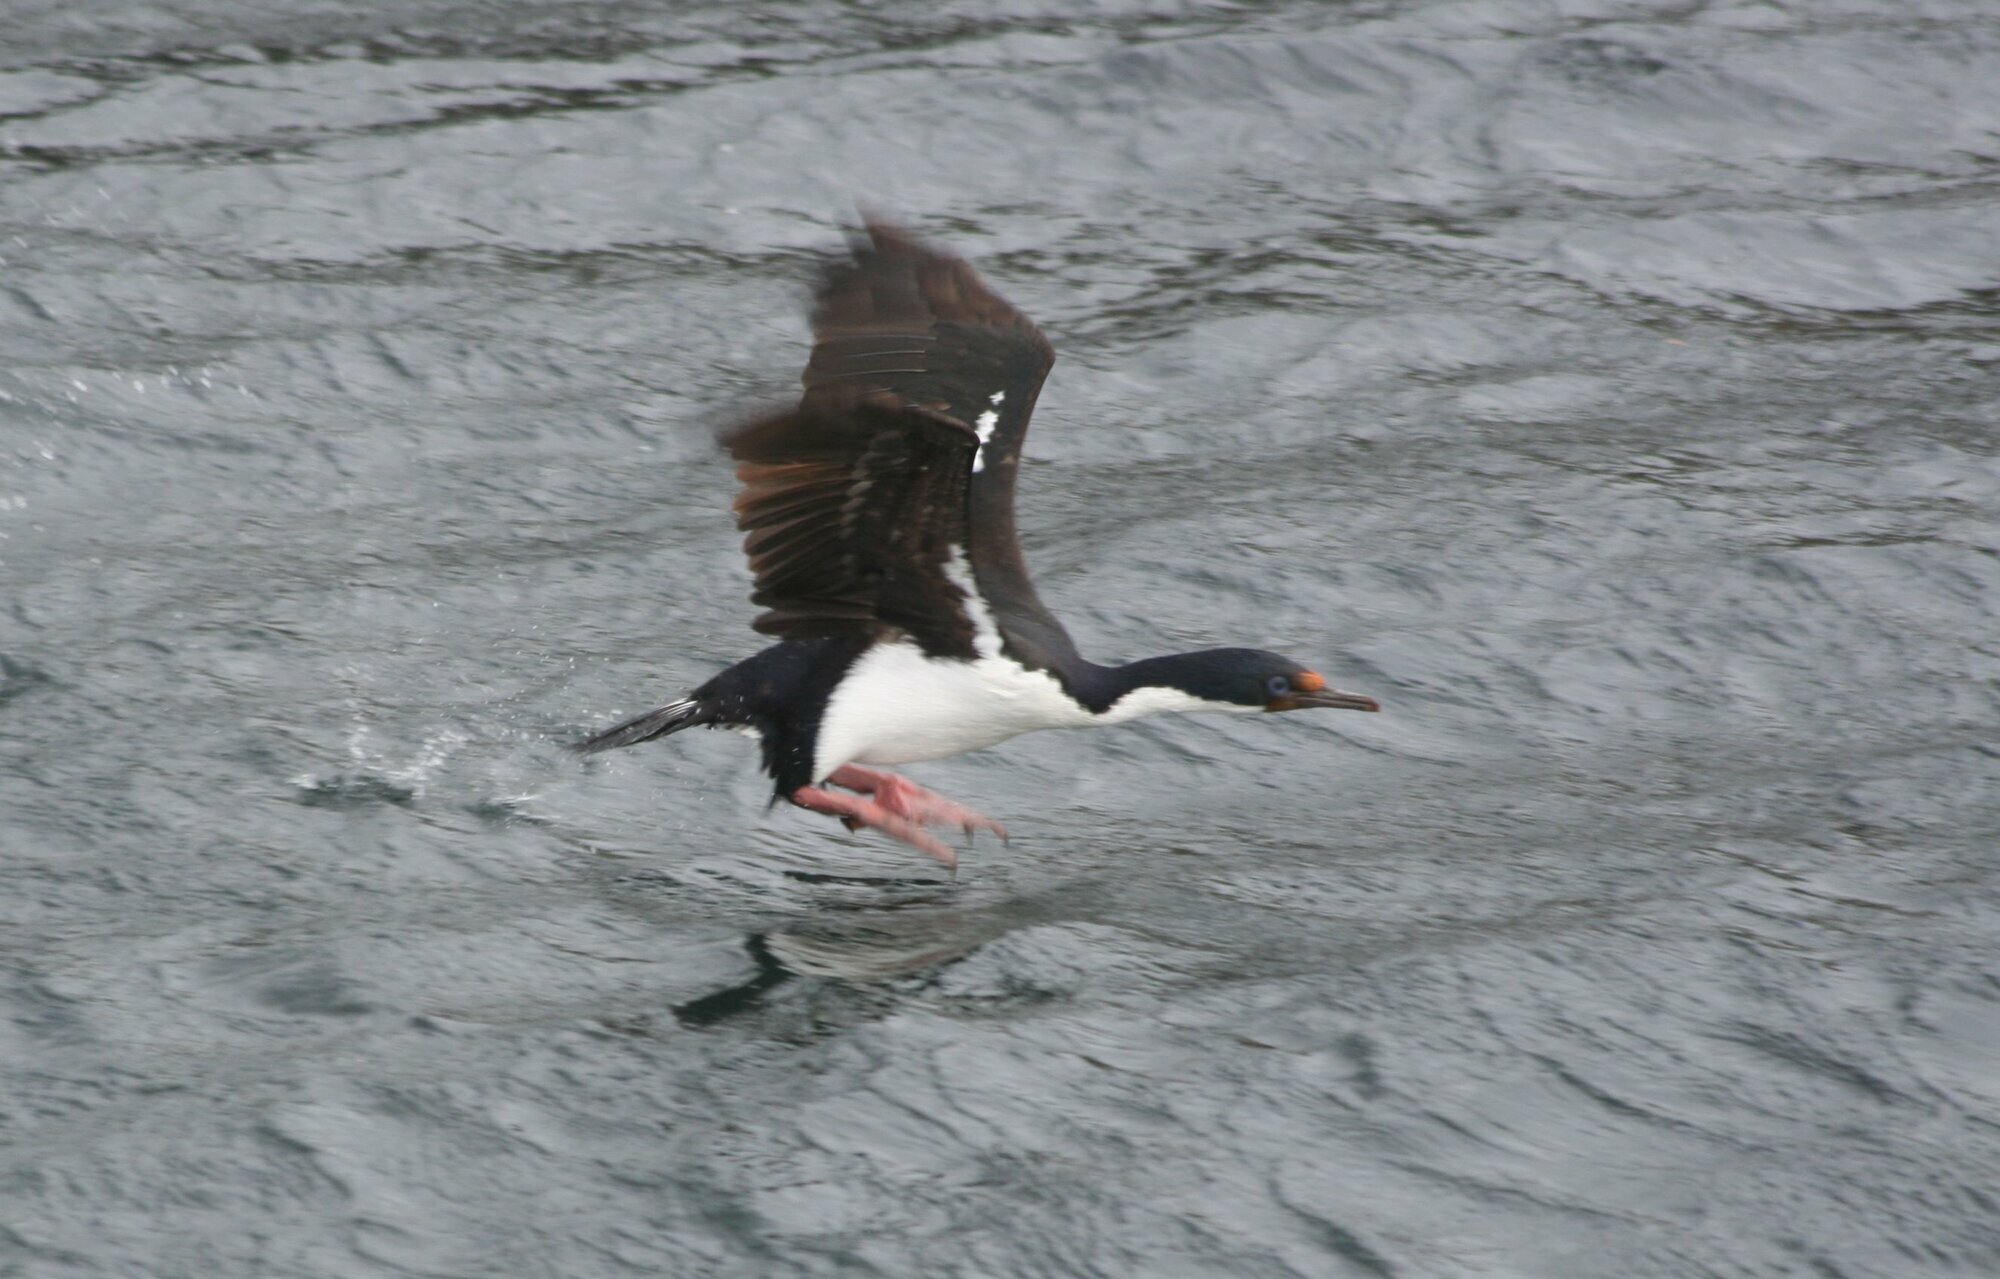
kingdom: Animalia
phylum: Chordata
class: Aves
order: Suliformes
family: Phalacrocoracidae
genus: Leucocarbo
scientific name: Leucocarbo atriceps
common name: Imperial shag
